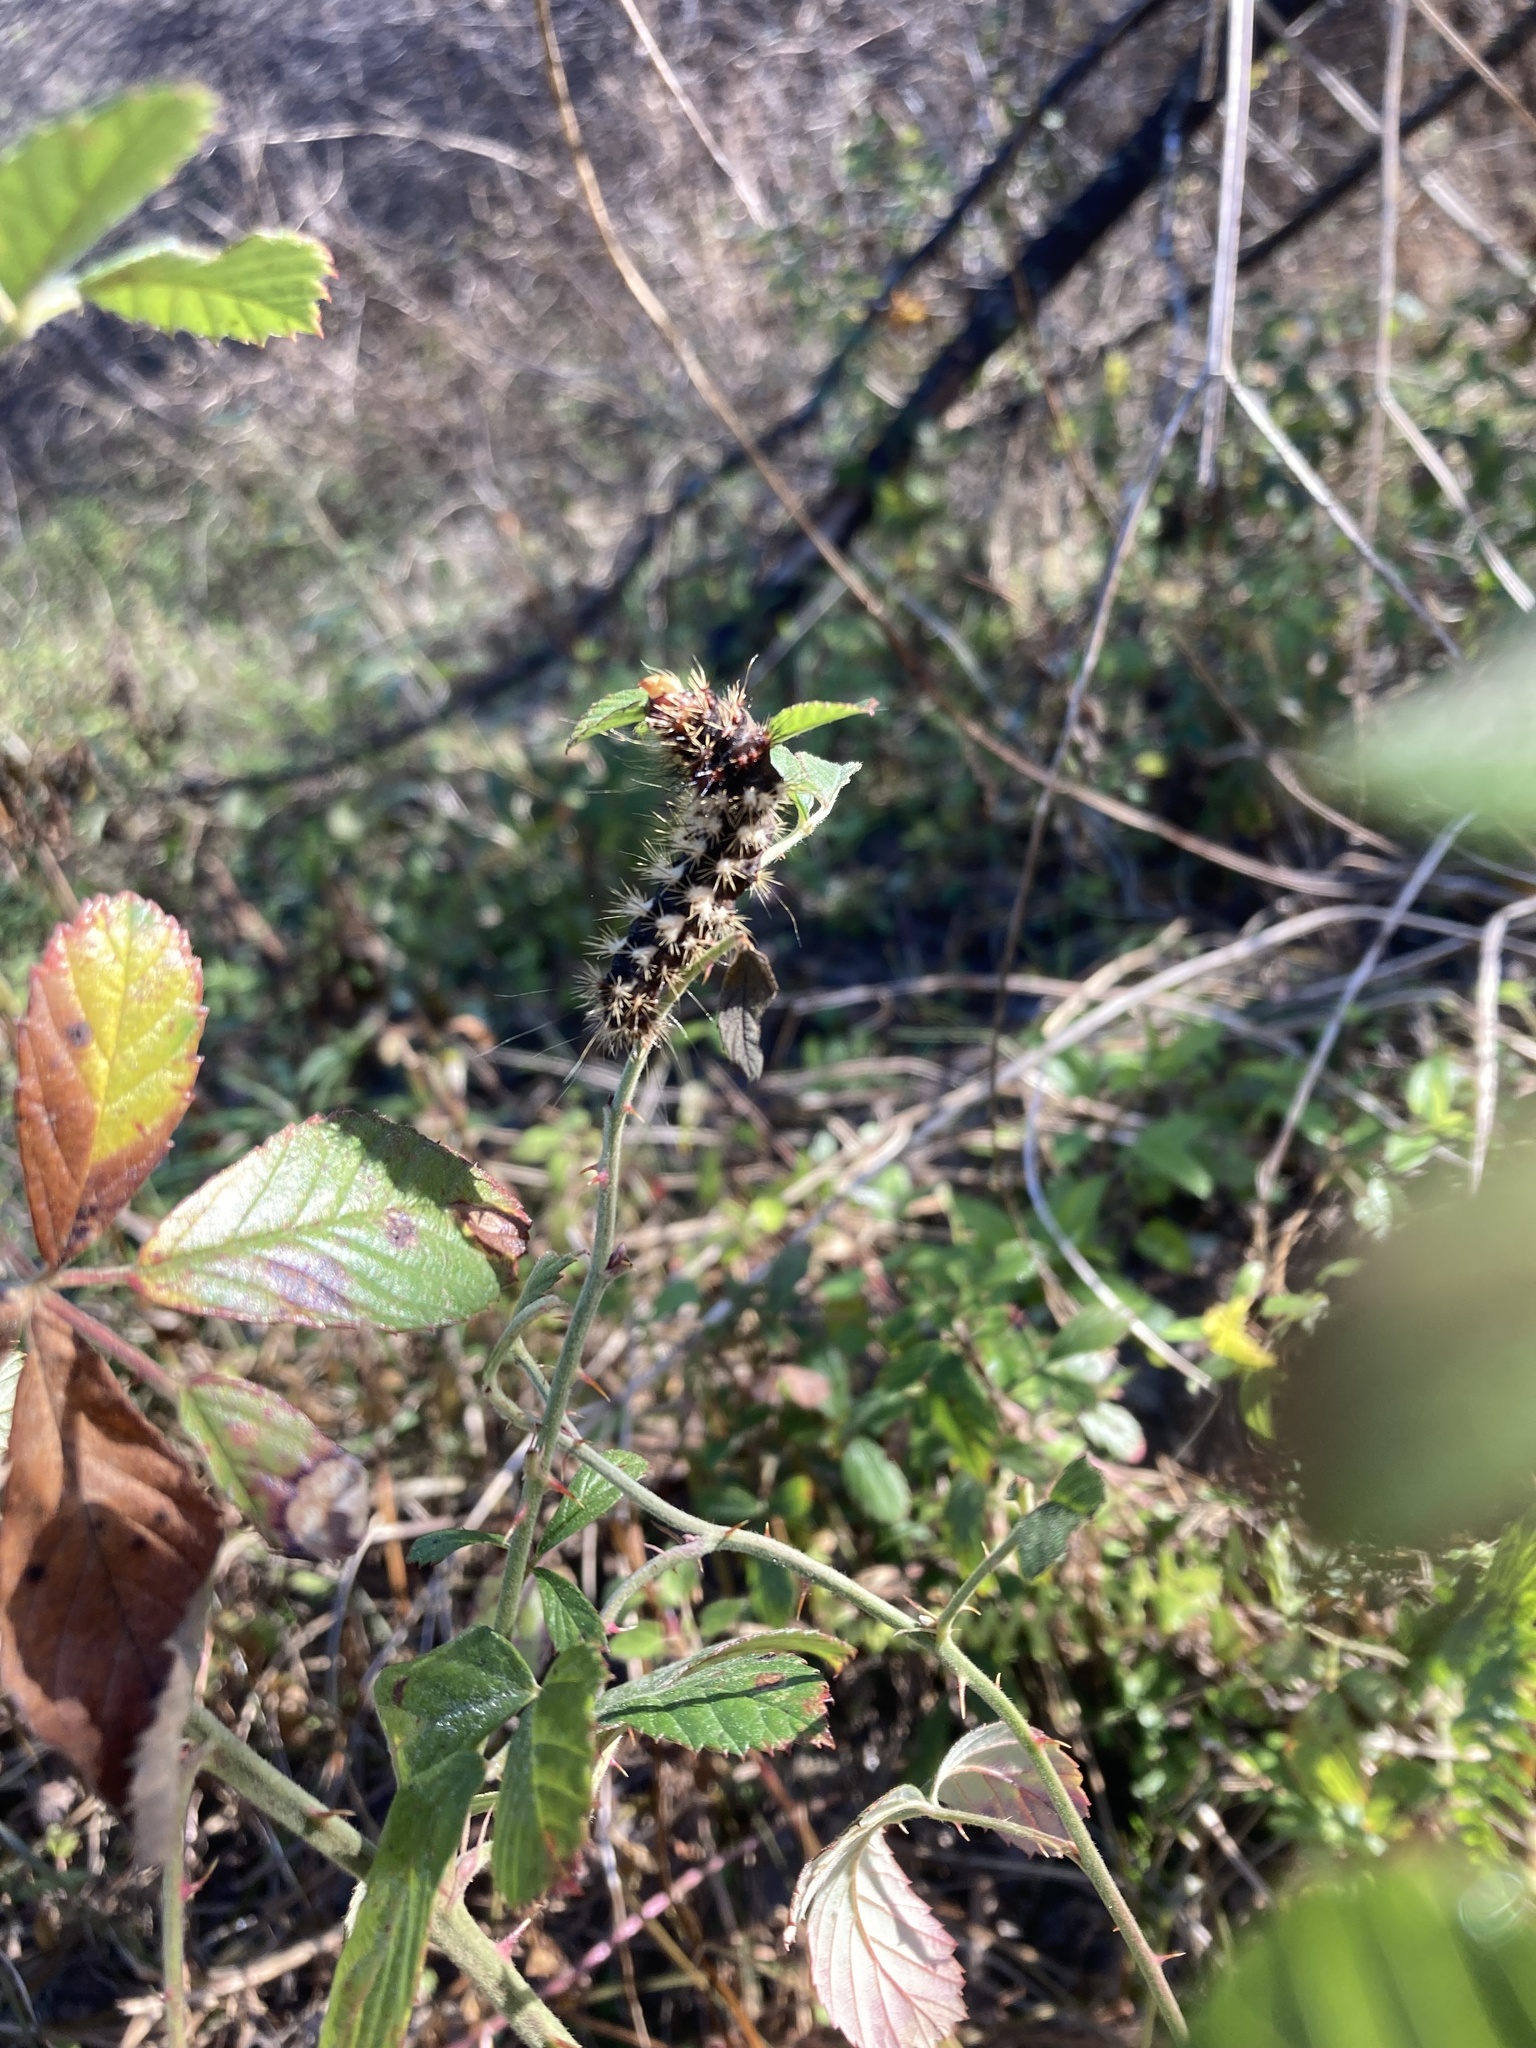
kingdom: Animalia
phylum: Arthropoda
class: Insecta
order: Lepidoptera
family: Noctuidae
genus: Acronicta
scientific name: Acronicta longa
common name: Long-winged dagger
